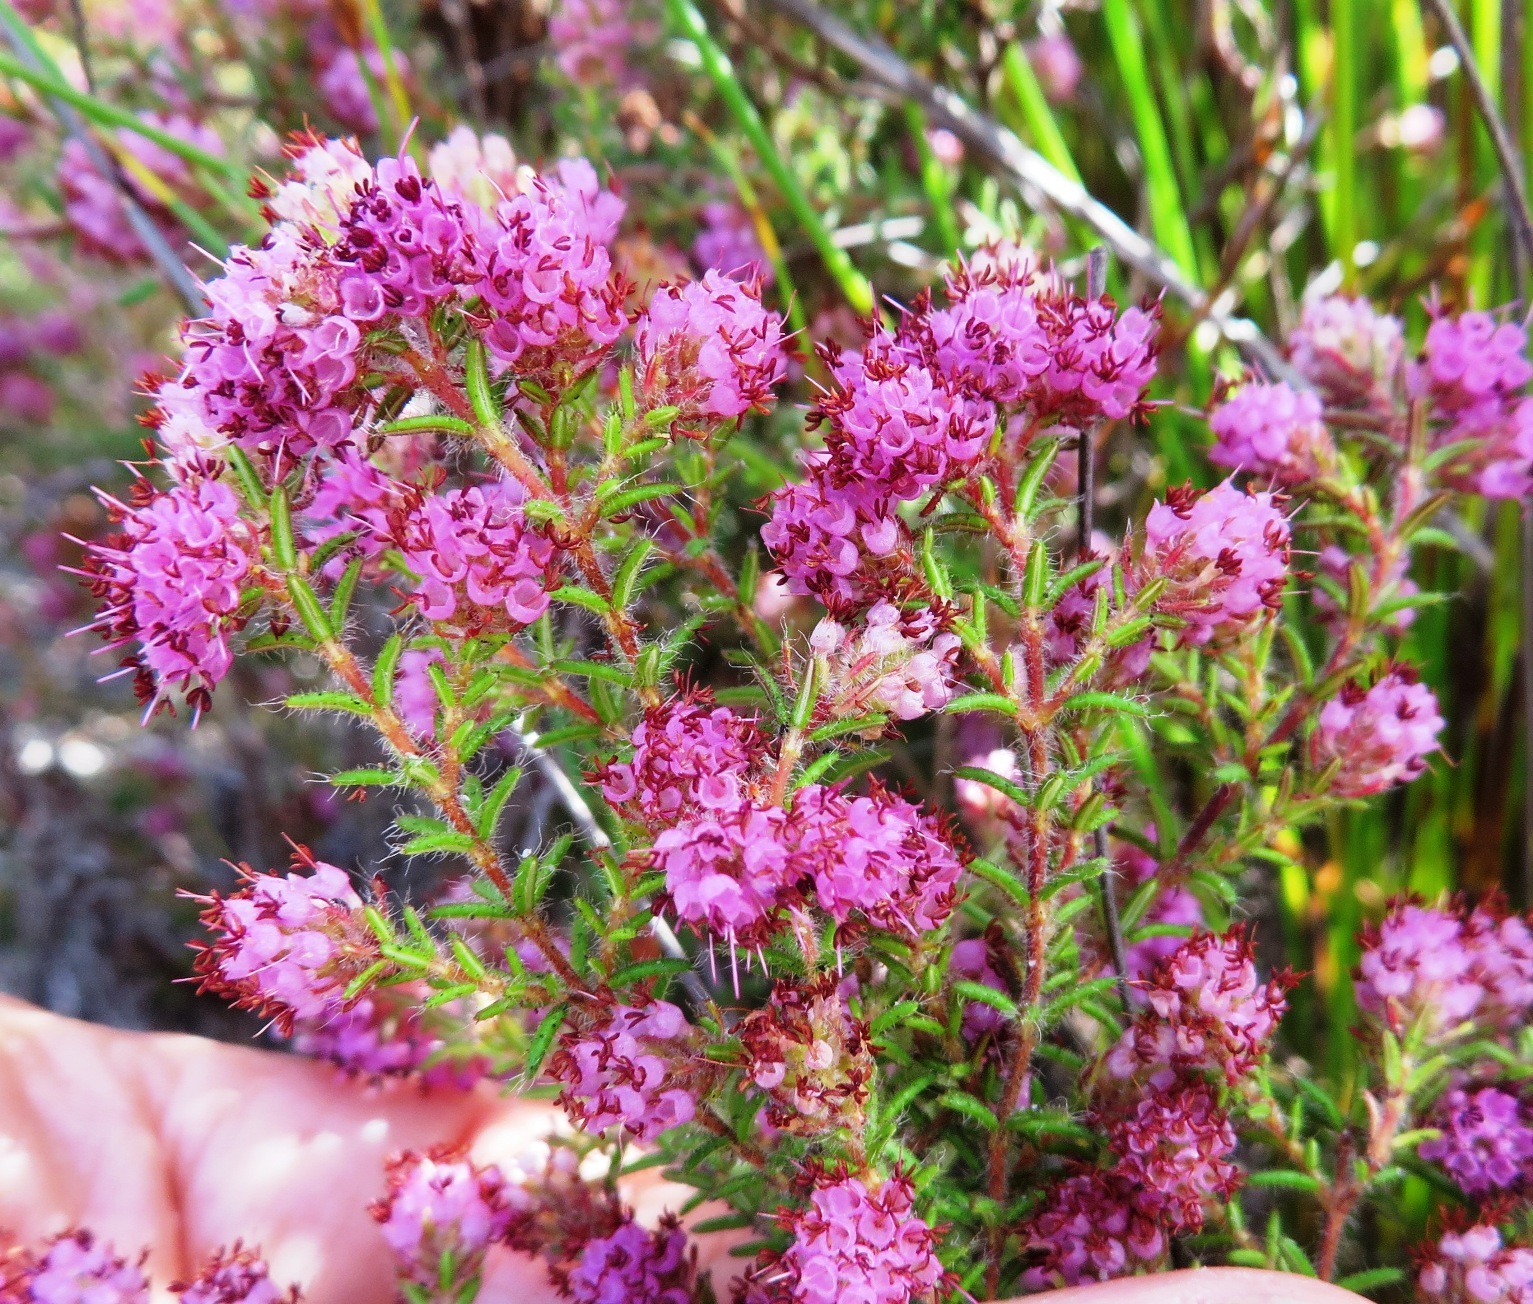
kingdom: Plantae
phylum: Tracheophyta
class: Magnoliopsida
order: Ericales
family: Ericaceae
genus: Erica
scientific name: Erica similis
